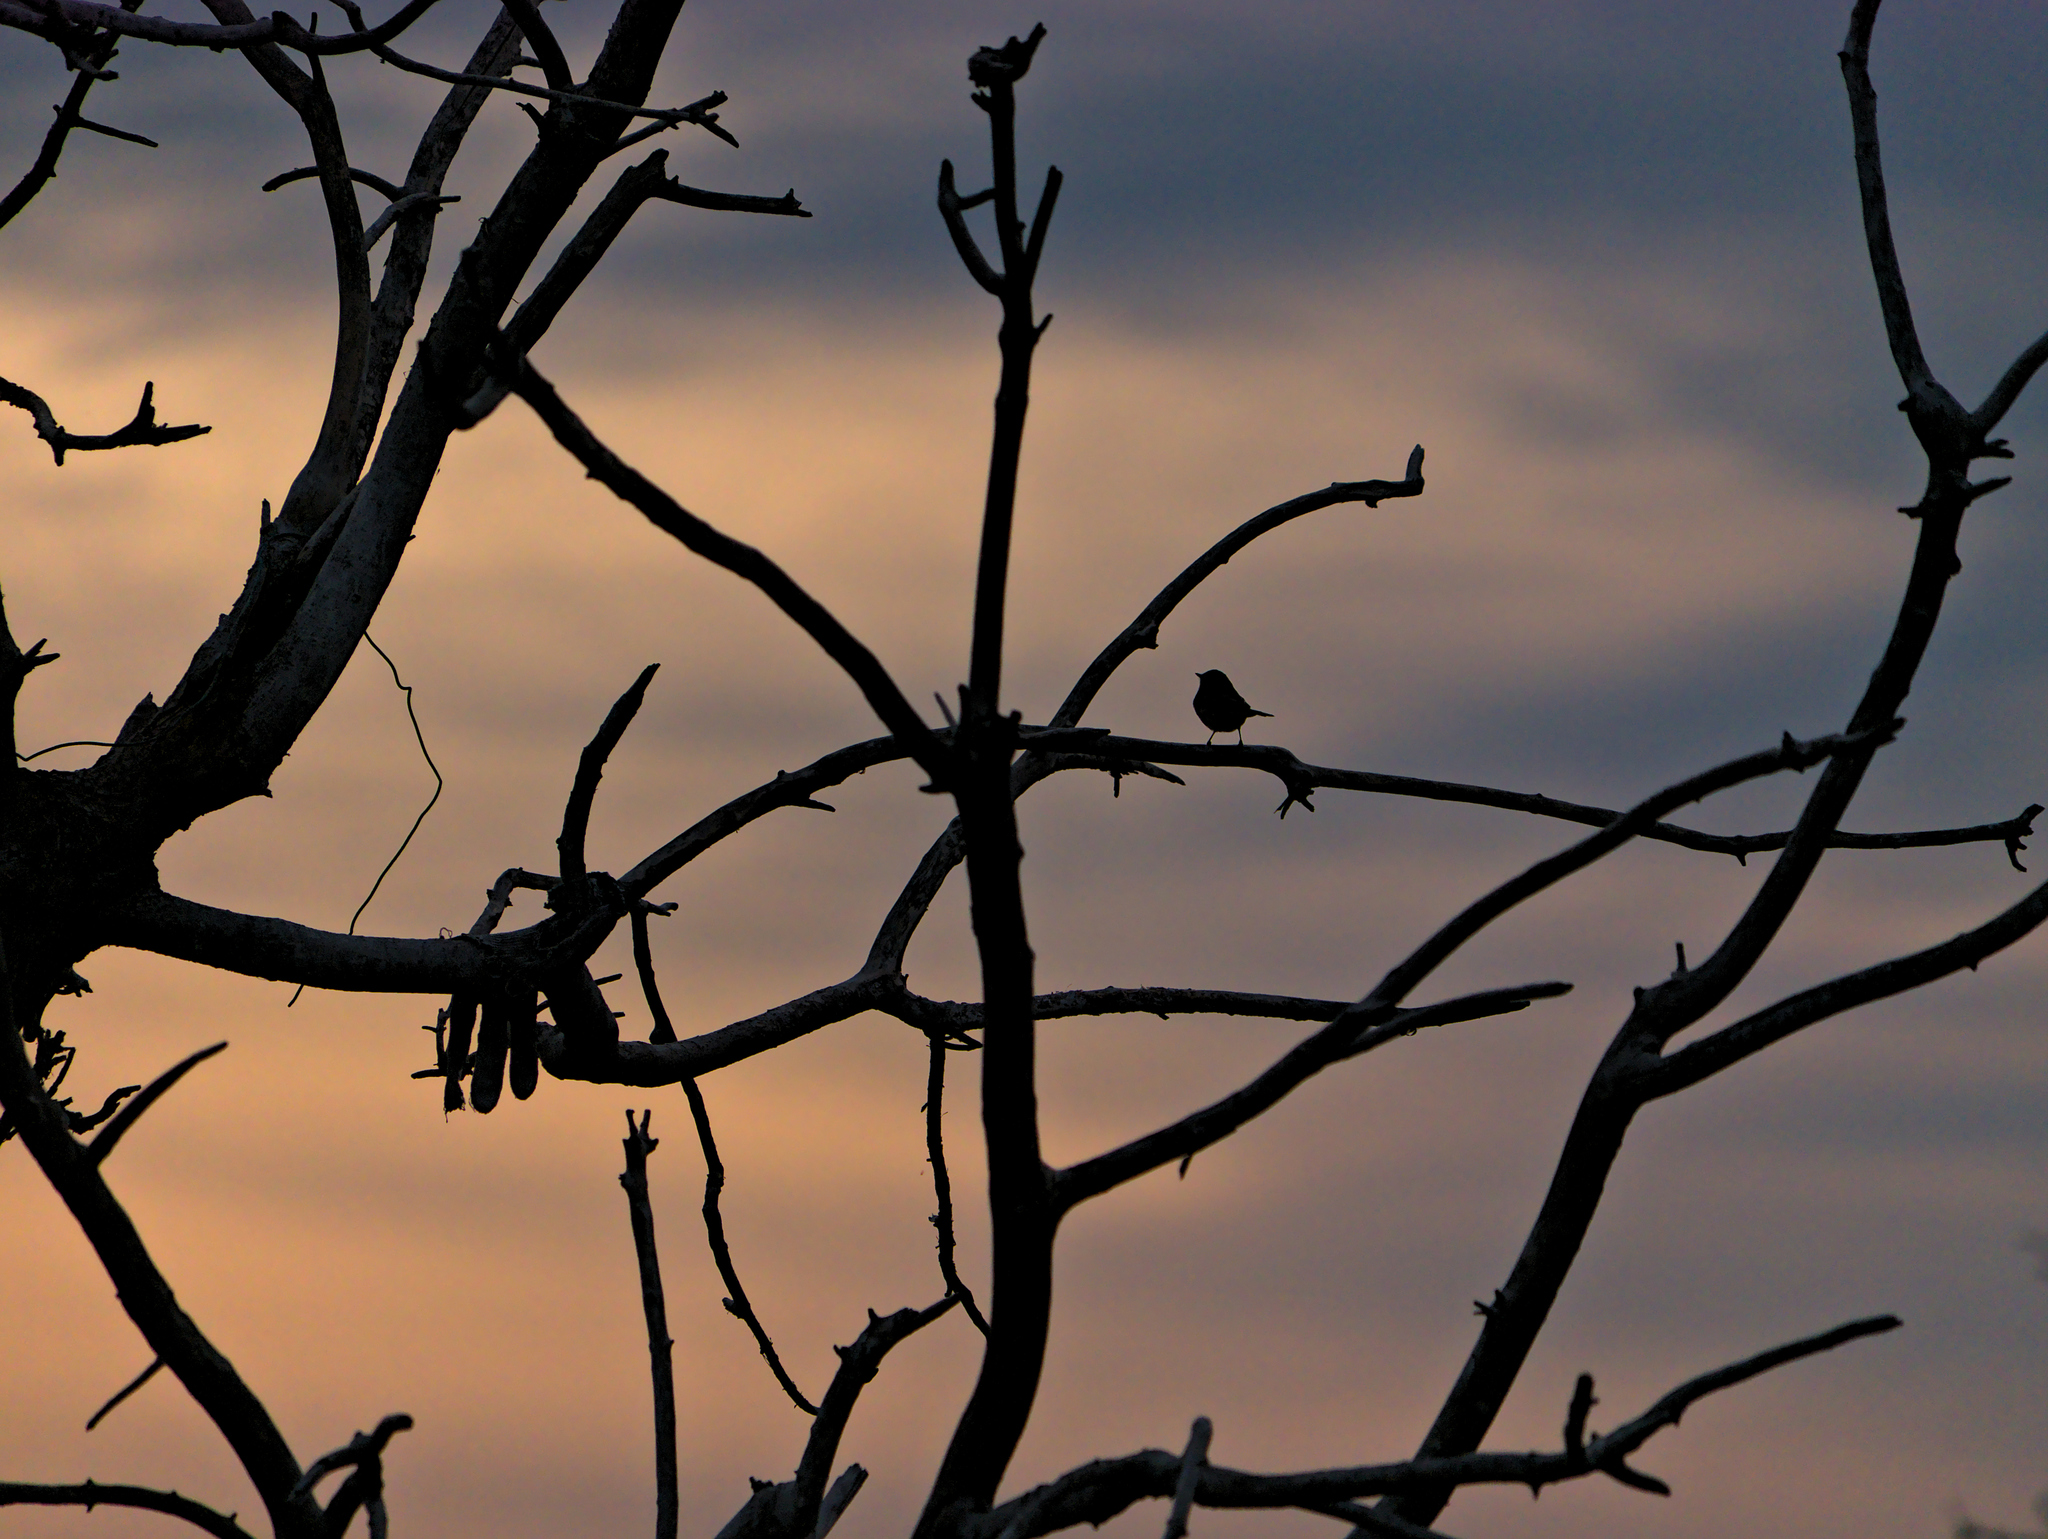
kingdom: Animalia
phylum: Chordata
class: Aves
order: Passeriformes
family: Parulidae
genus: Setophaga
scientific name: Setophaga coronata
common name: Myrtle warbler
